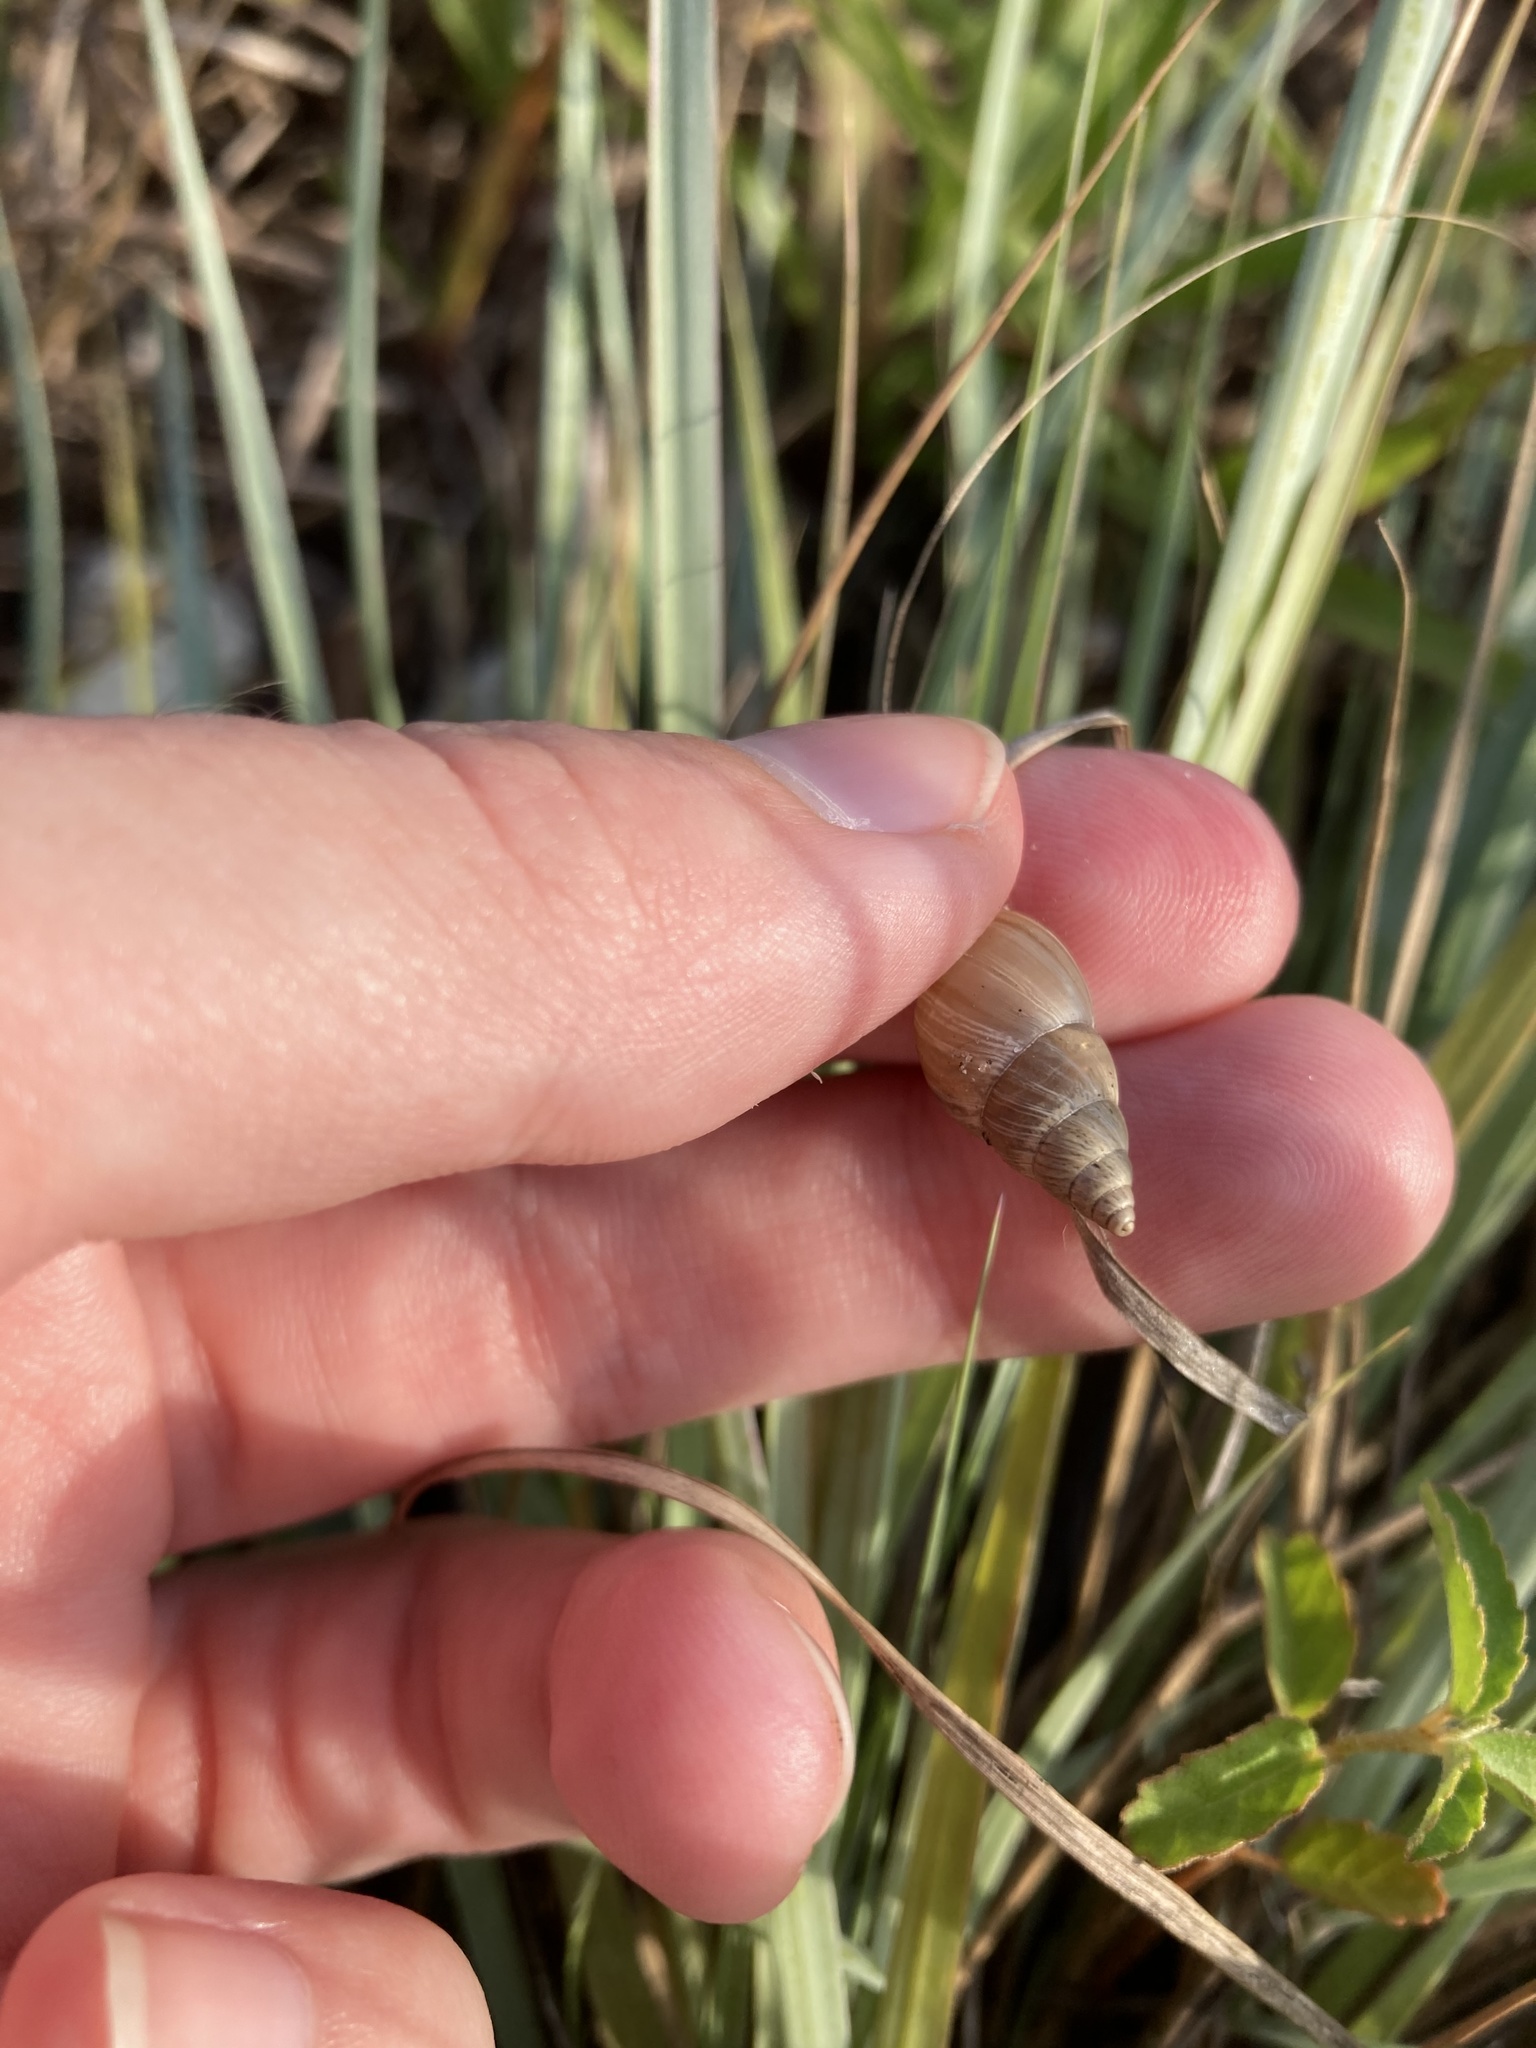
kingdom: Animalia
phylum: Mollusca
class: Gastropoda
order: Stylommatophora
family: Bulimulidae
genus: Bulimulus
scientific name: Bulimulus bonariensis
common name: Snail
